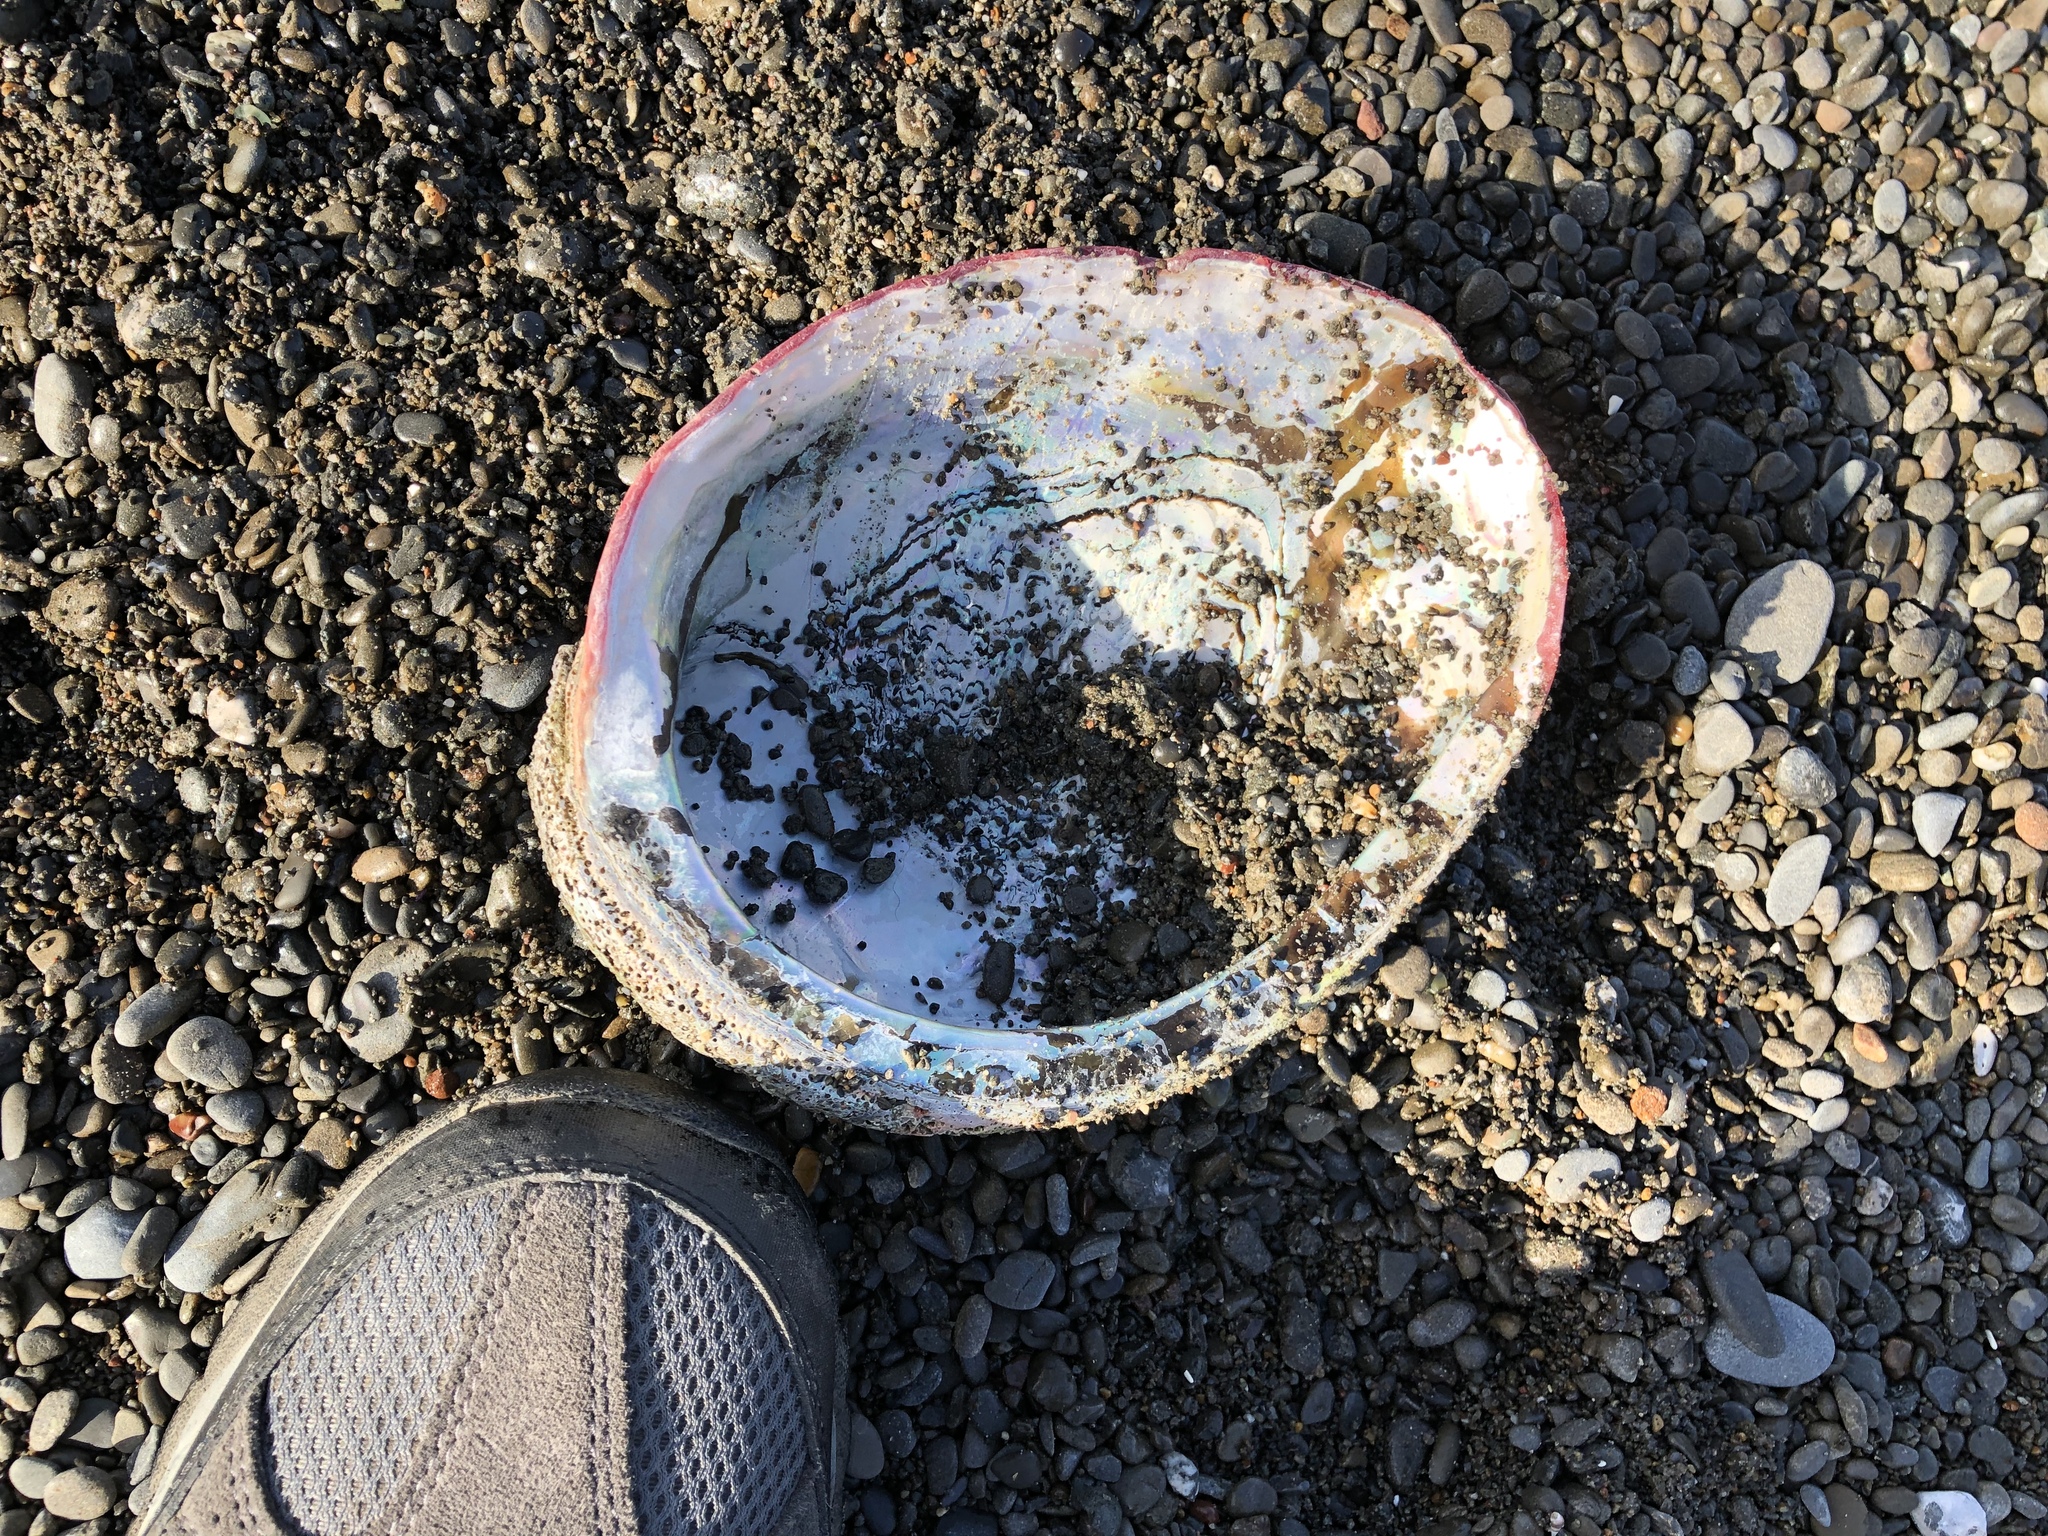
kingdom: Animalia
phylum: Mollusca
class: Gastropoda
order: Lepetellida
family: Haliotidae
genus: Haliotis
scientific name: Haliotis rufescens
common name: Red abalone
